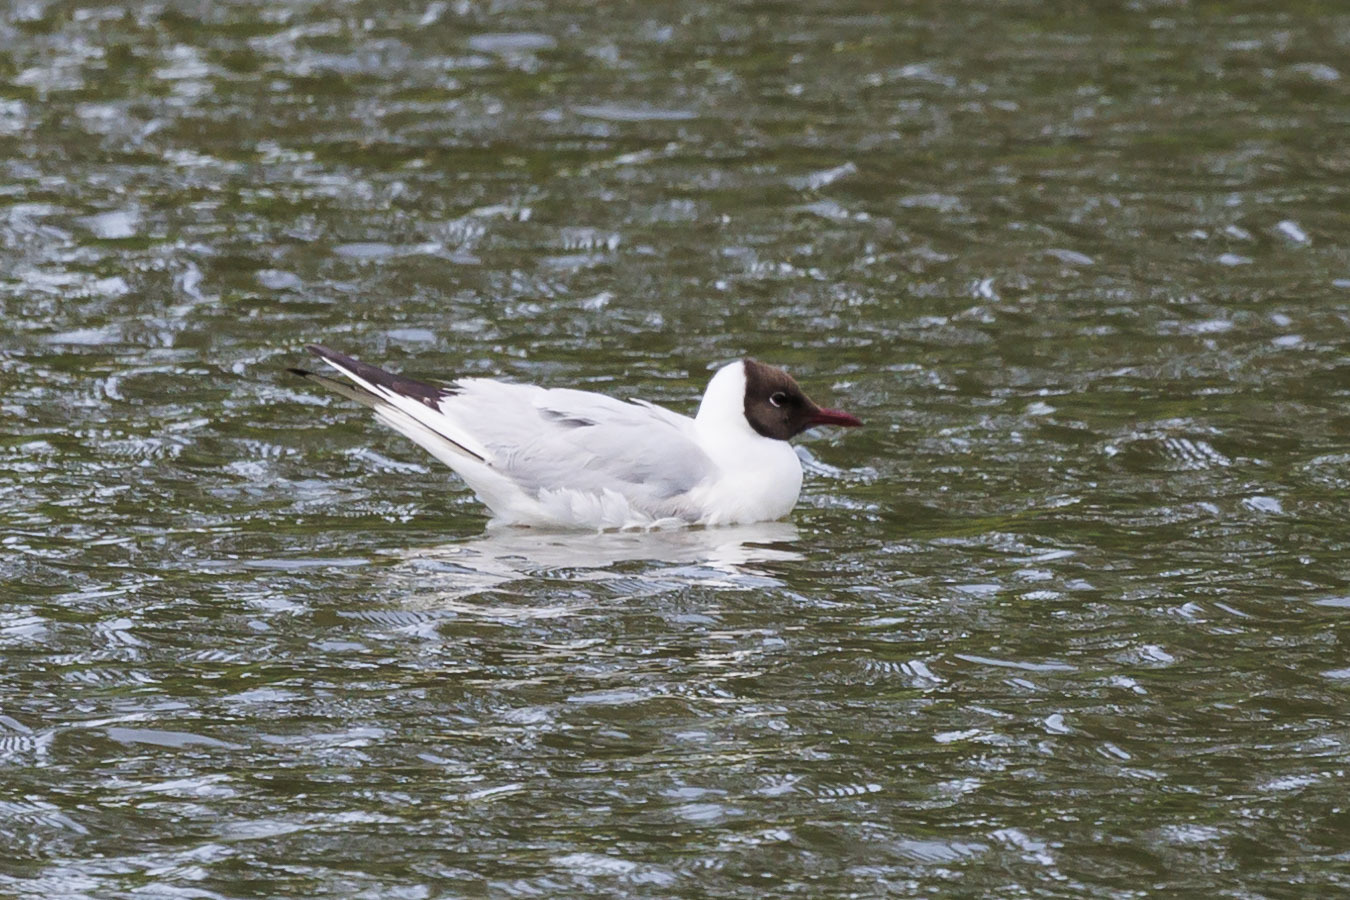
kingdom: Animalia
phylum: Chordata
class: Aves
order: Charadriiformes
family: Laridae
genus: Chroicocephalus
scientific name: Chroicocephalus ridibundus
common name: Black-headed gull
